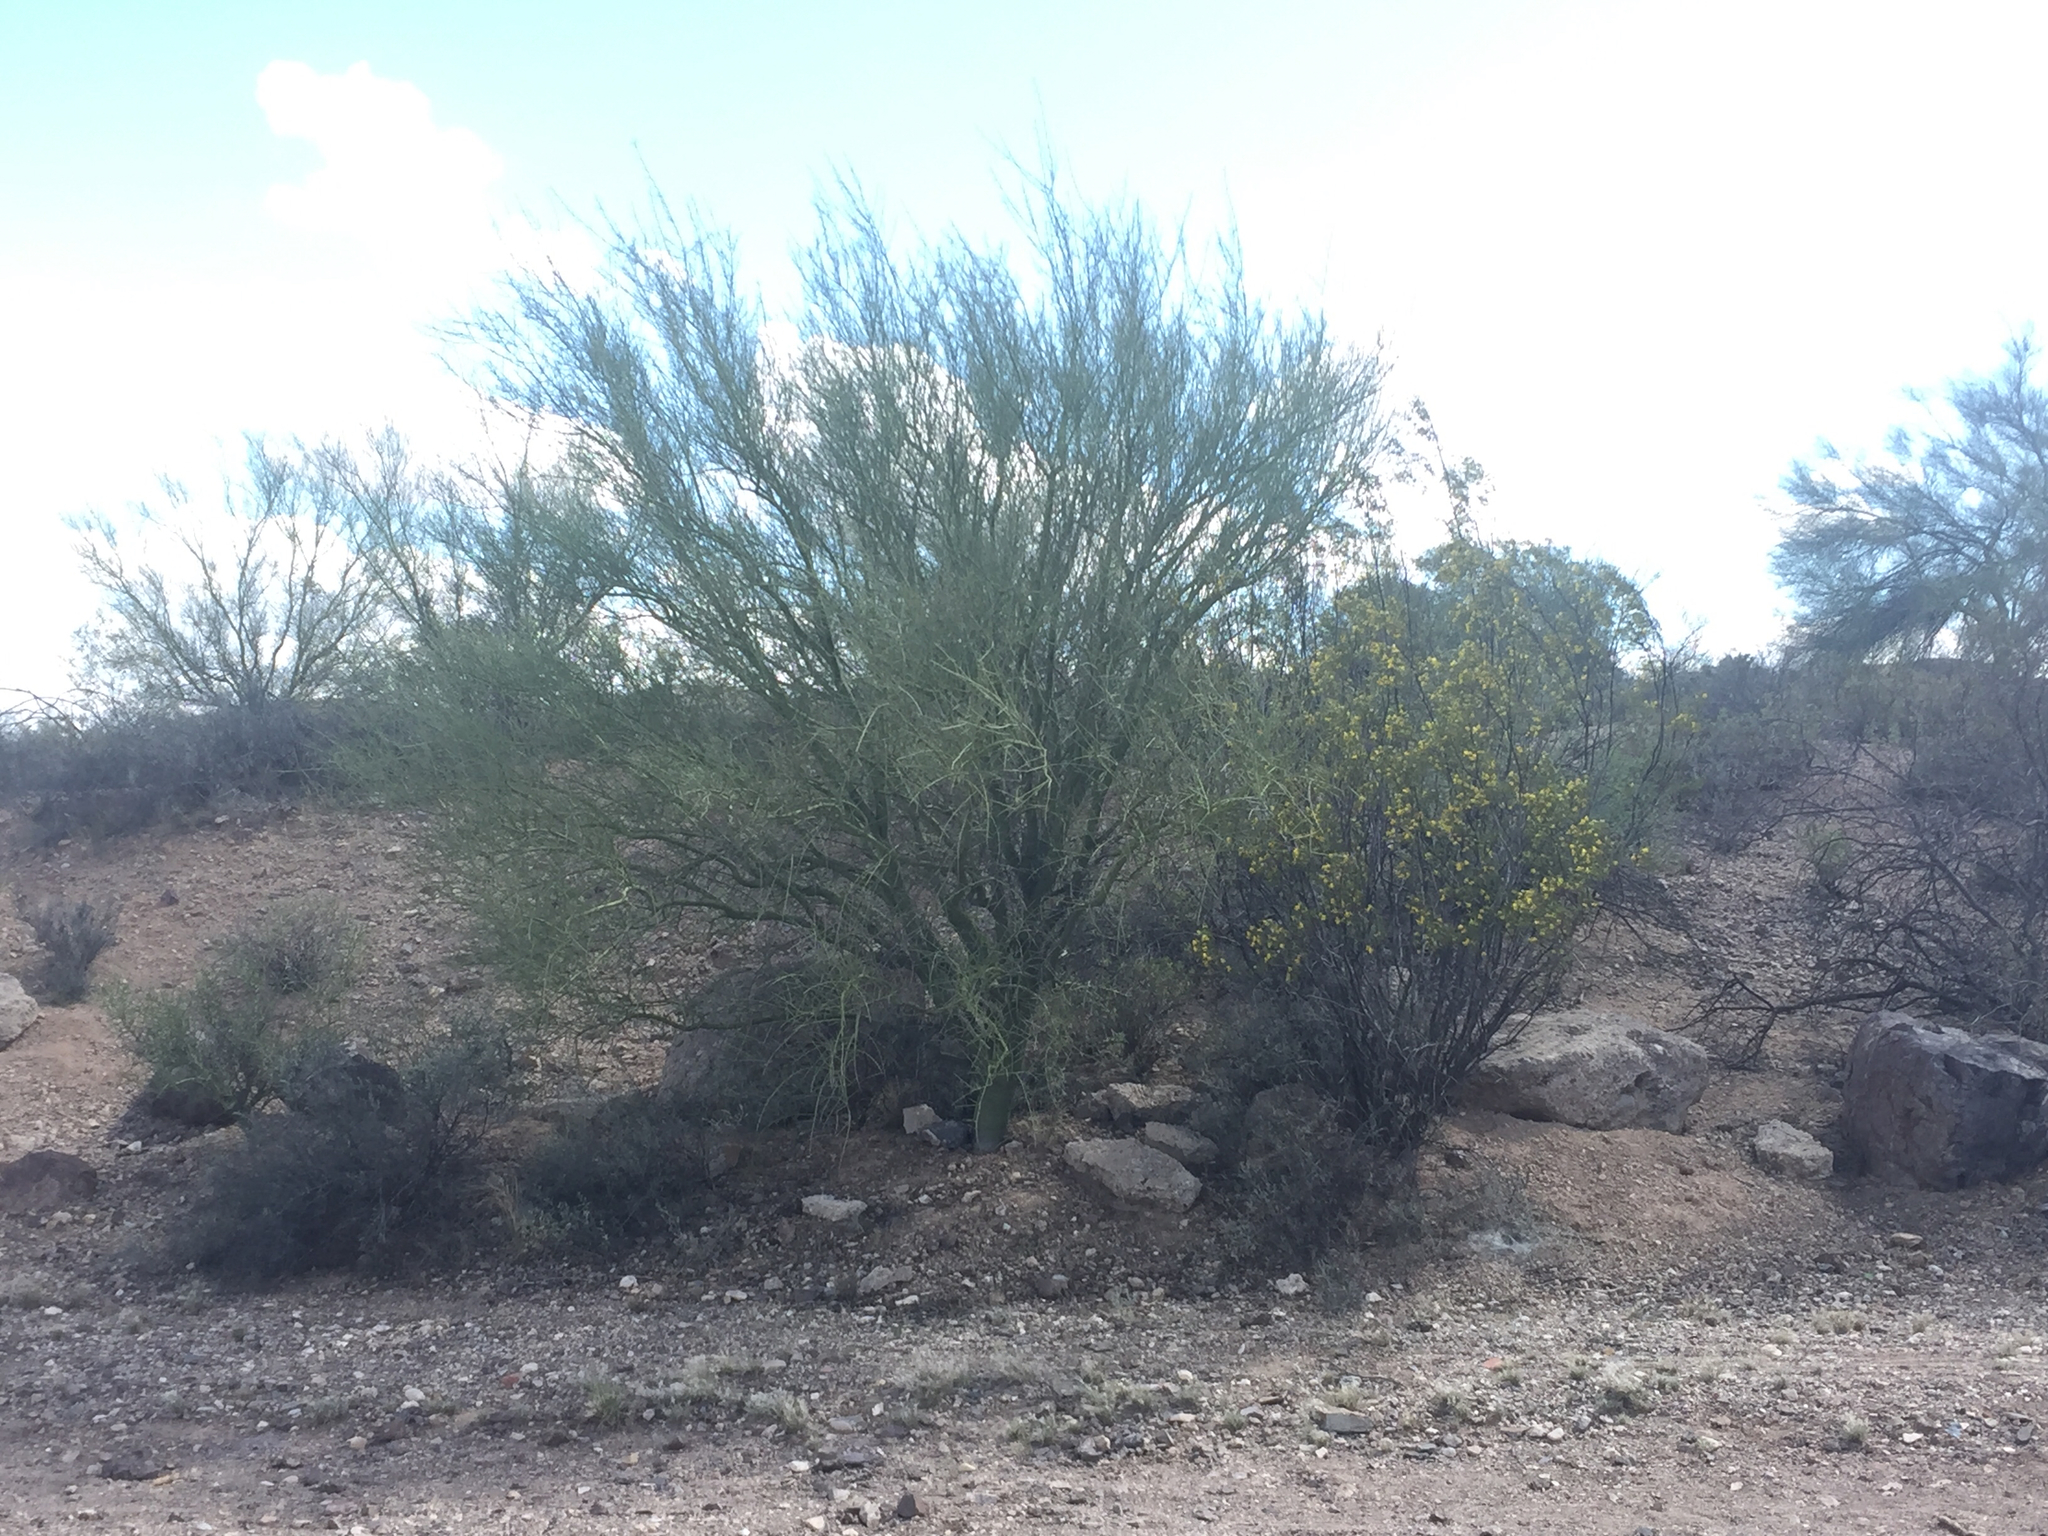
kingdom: Plantae
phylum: Tracheophyta
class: Magnoliopsida
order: Zygophyllales
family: Zygophyllaceae
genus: Larrea
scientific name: Larrea tridentata
